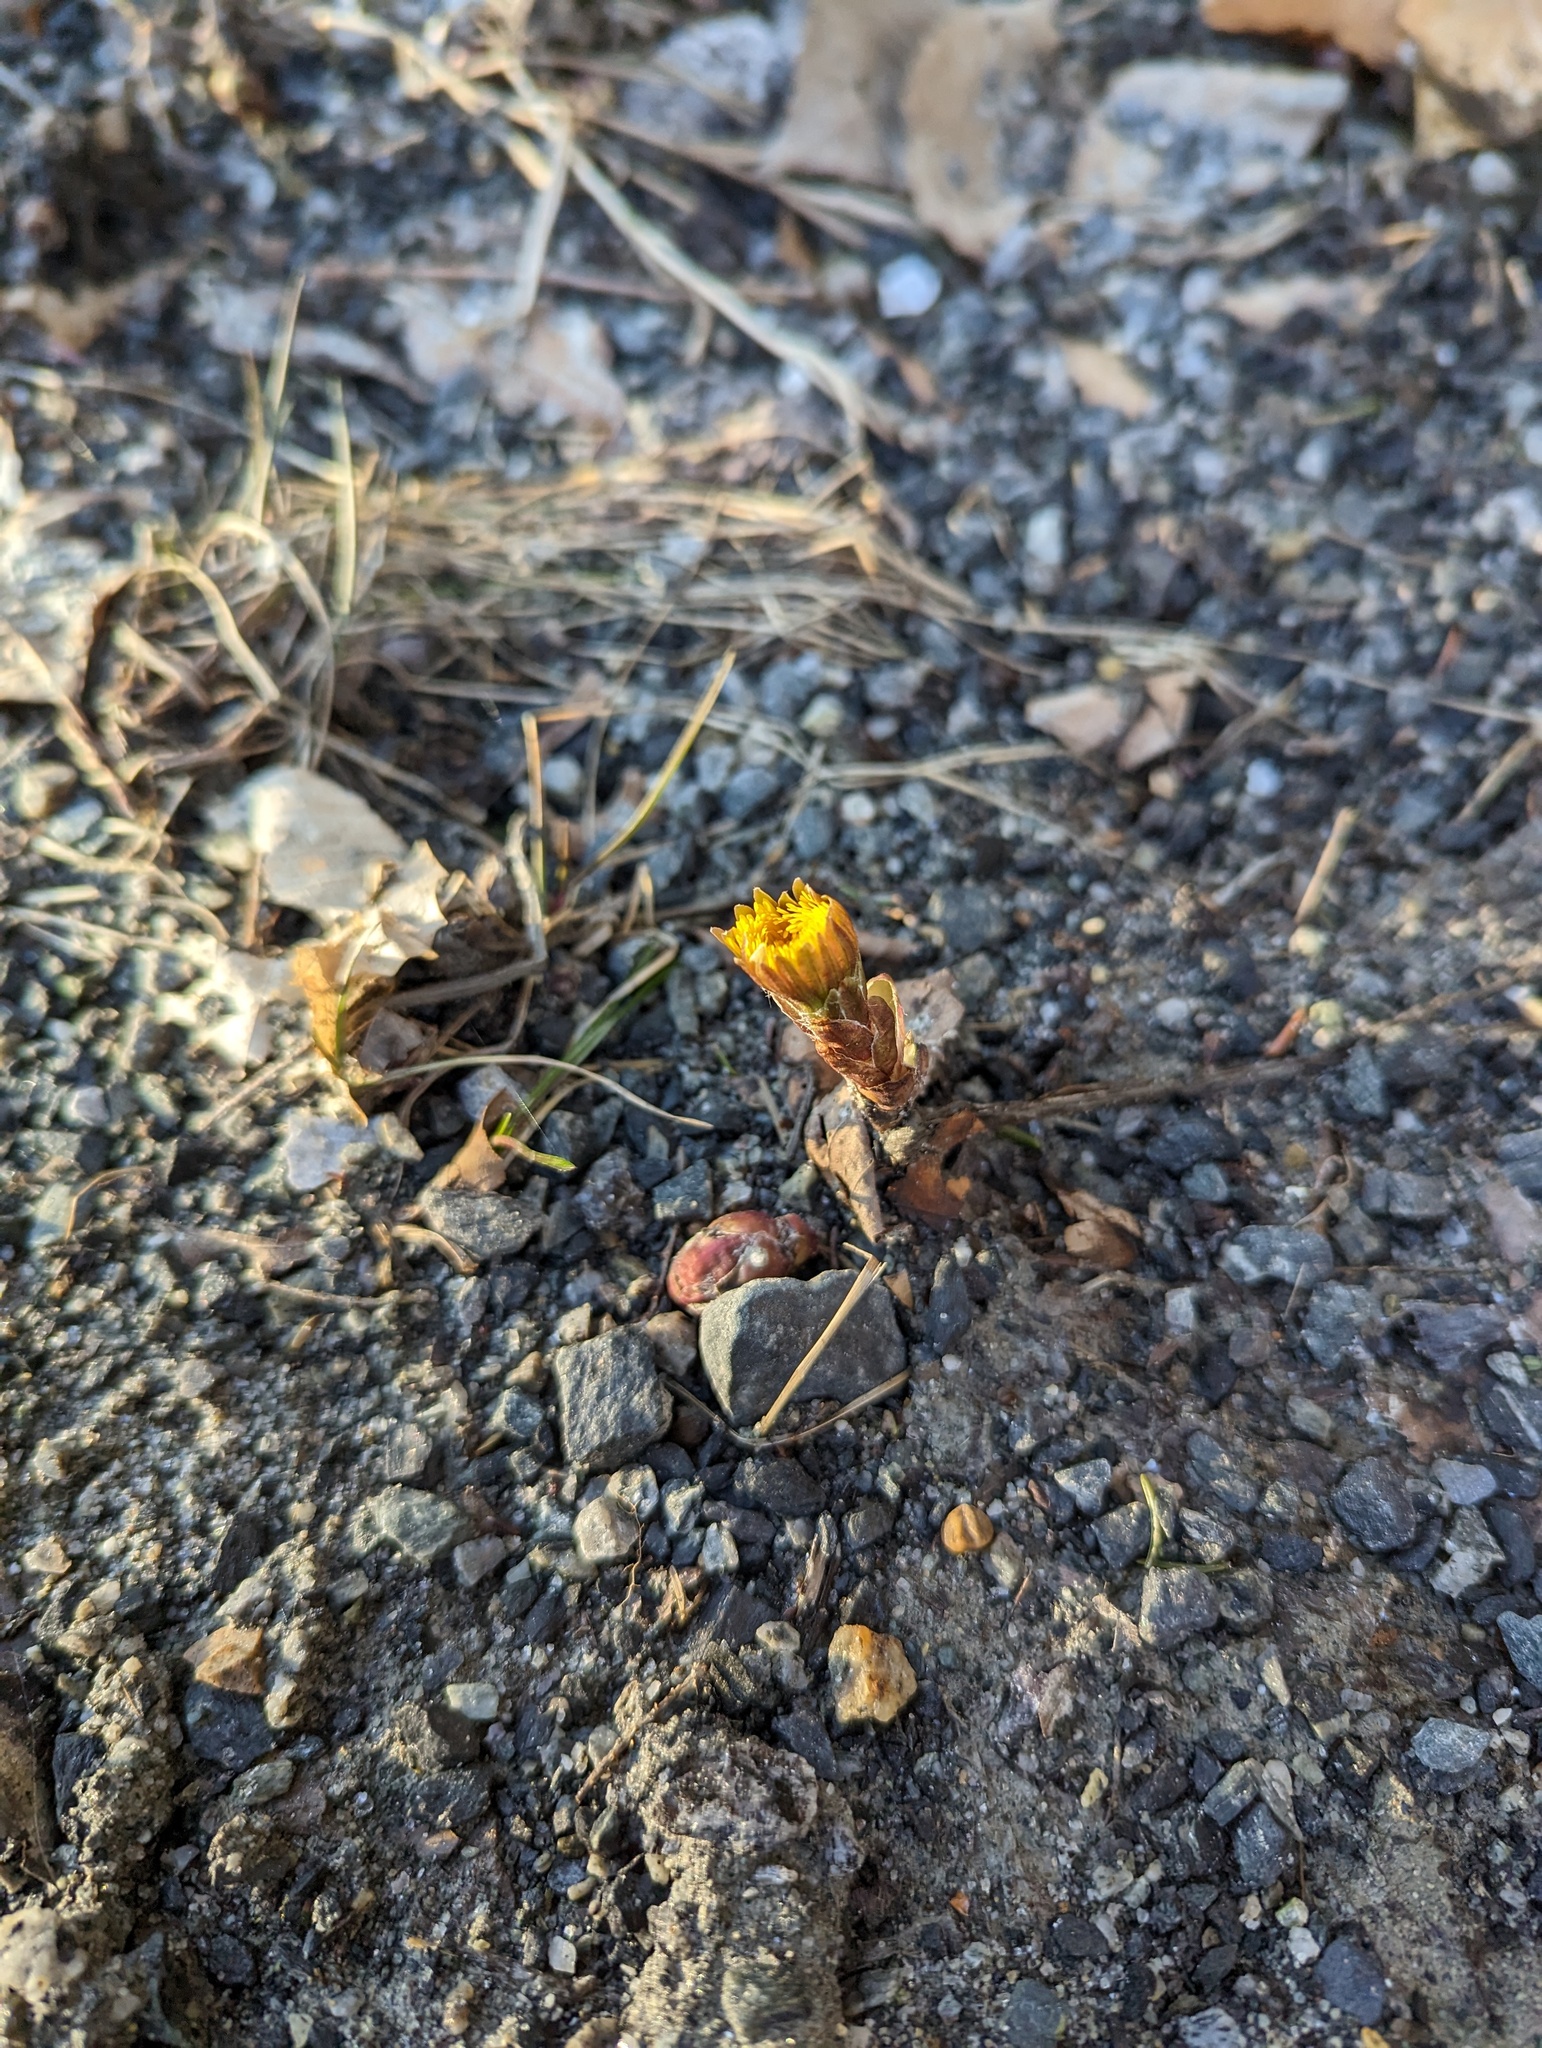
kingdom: Plantae
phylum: Tracheophyta
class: Magnoliopsida
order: Asterales
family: Asteraceae
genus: Tussilago
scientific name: Tussilago farfara
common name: Coltsfoot
